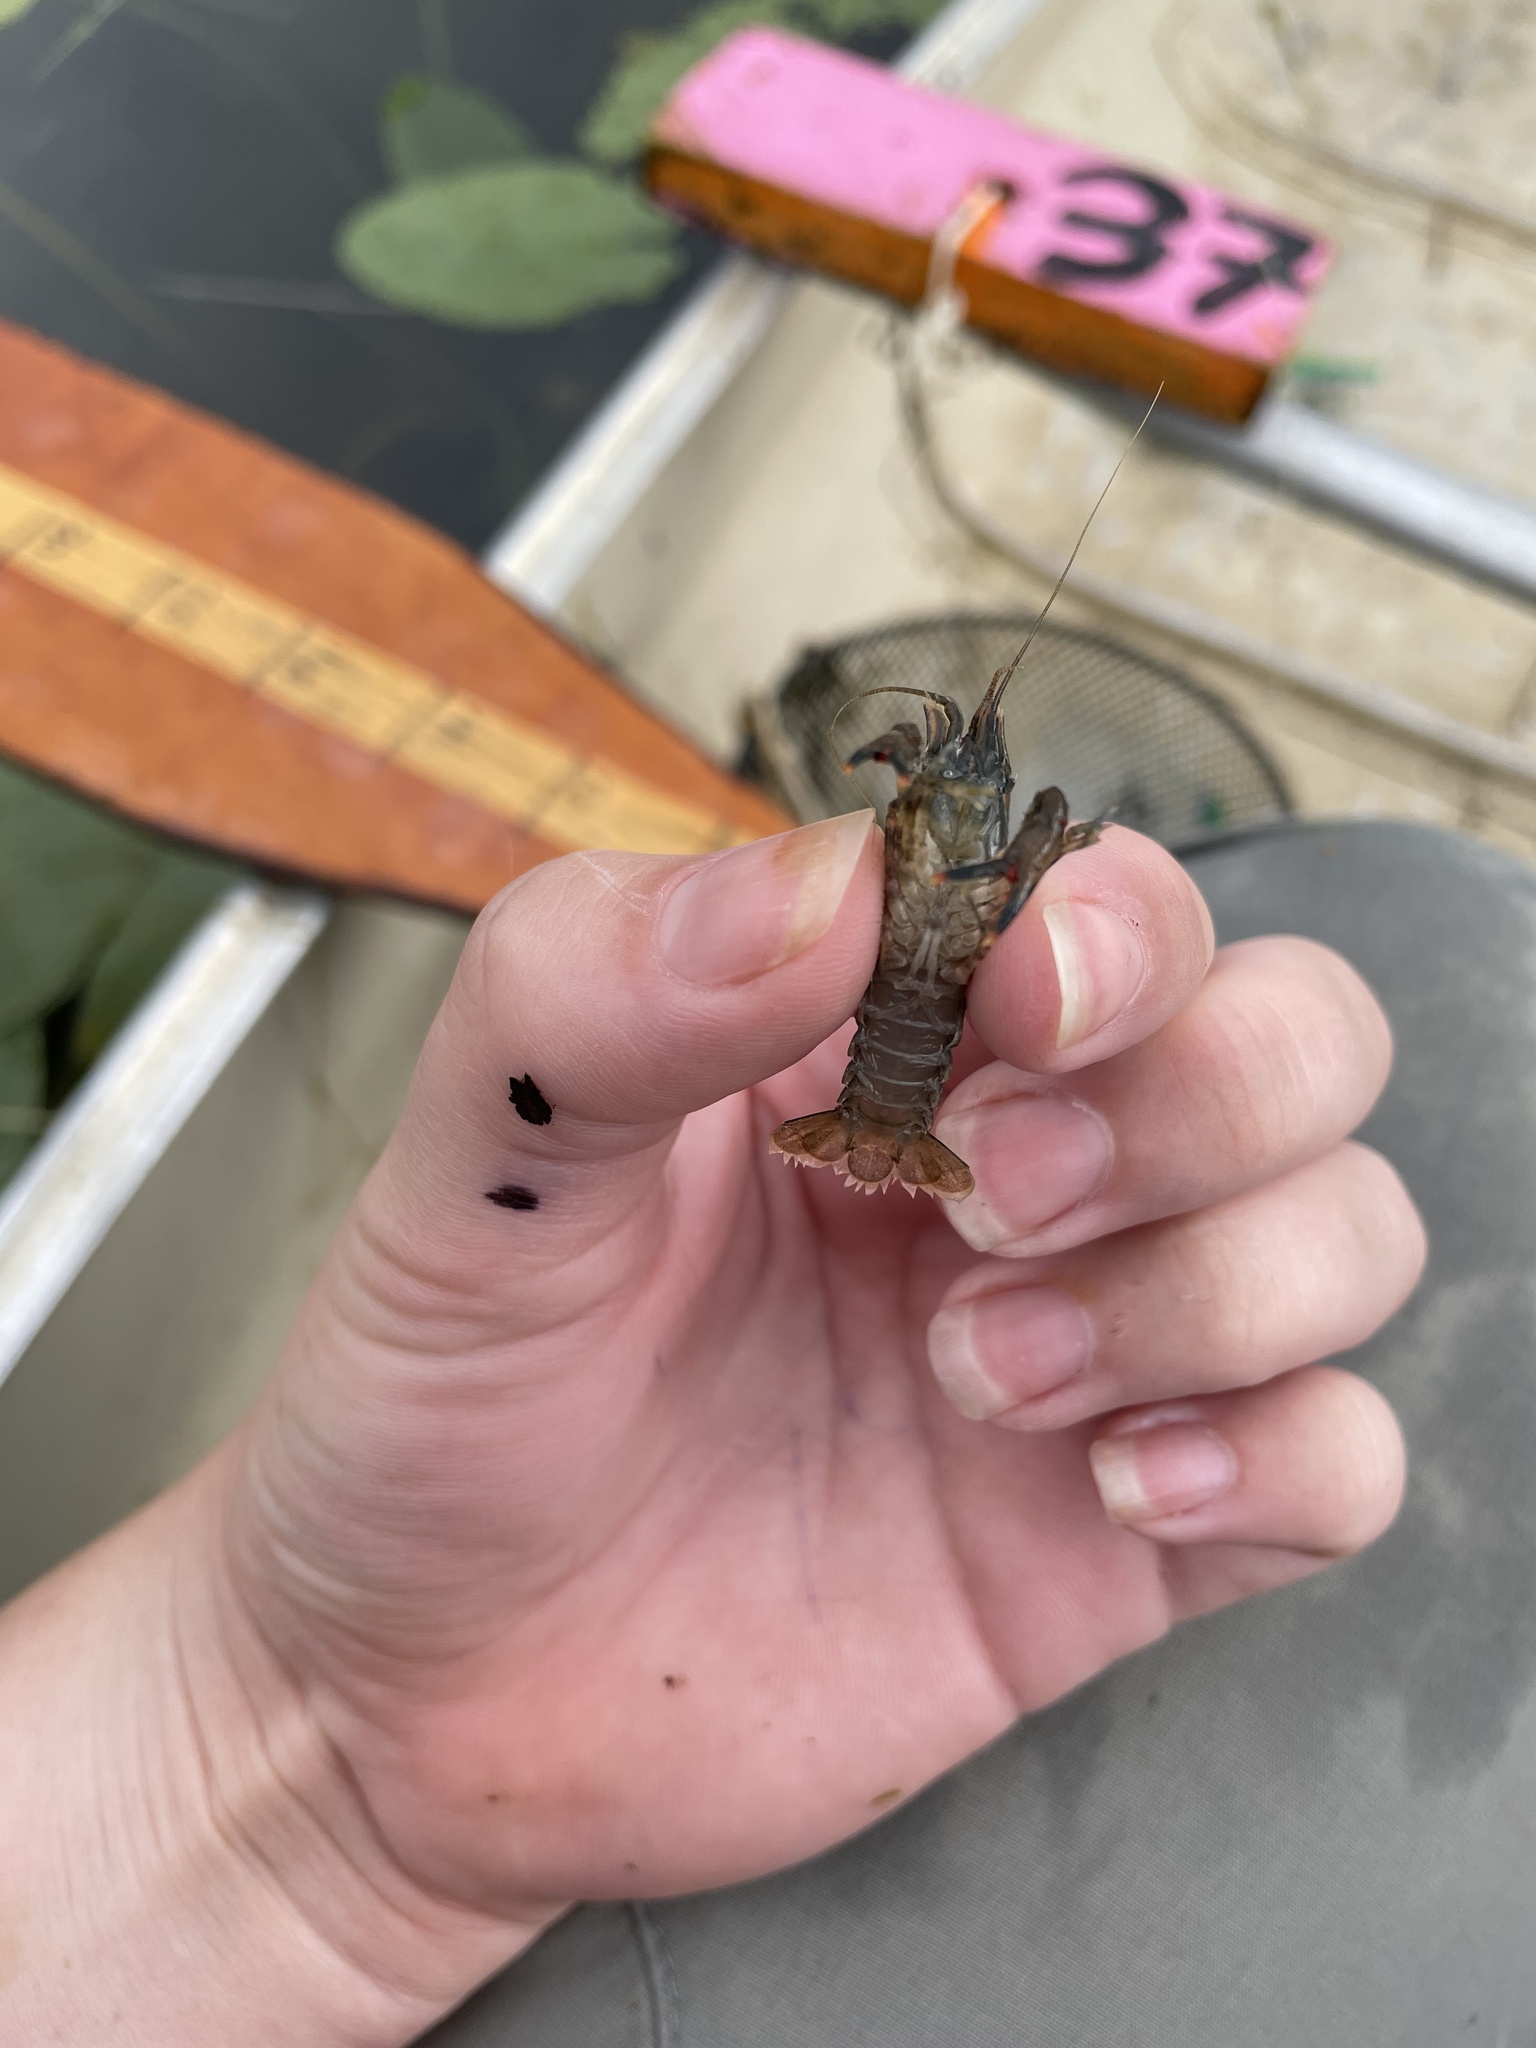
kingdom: Animalia
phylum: Arthropoda
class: Malacostraca
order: Decapoda
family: Cambaridae
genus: Faxonius
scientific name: Faxonius limosus
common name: American crayfish
